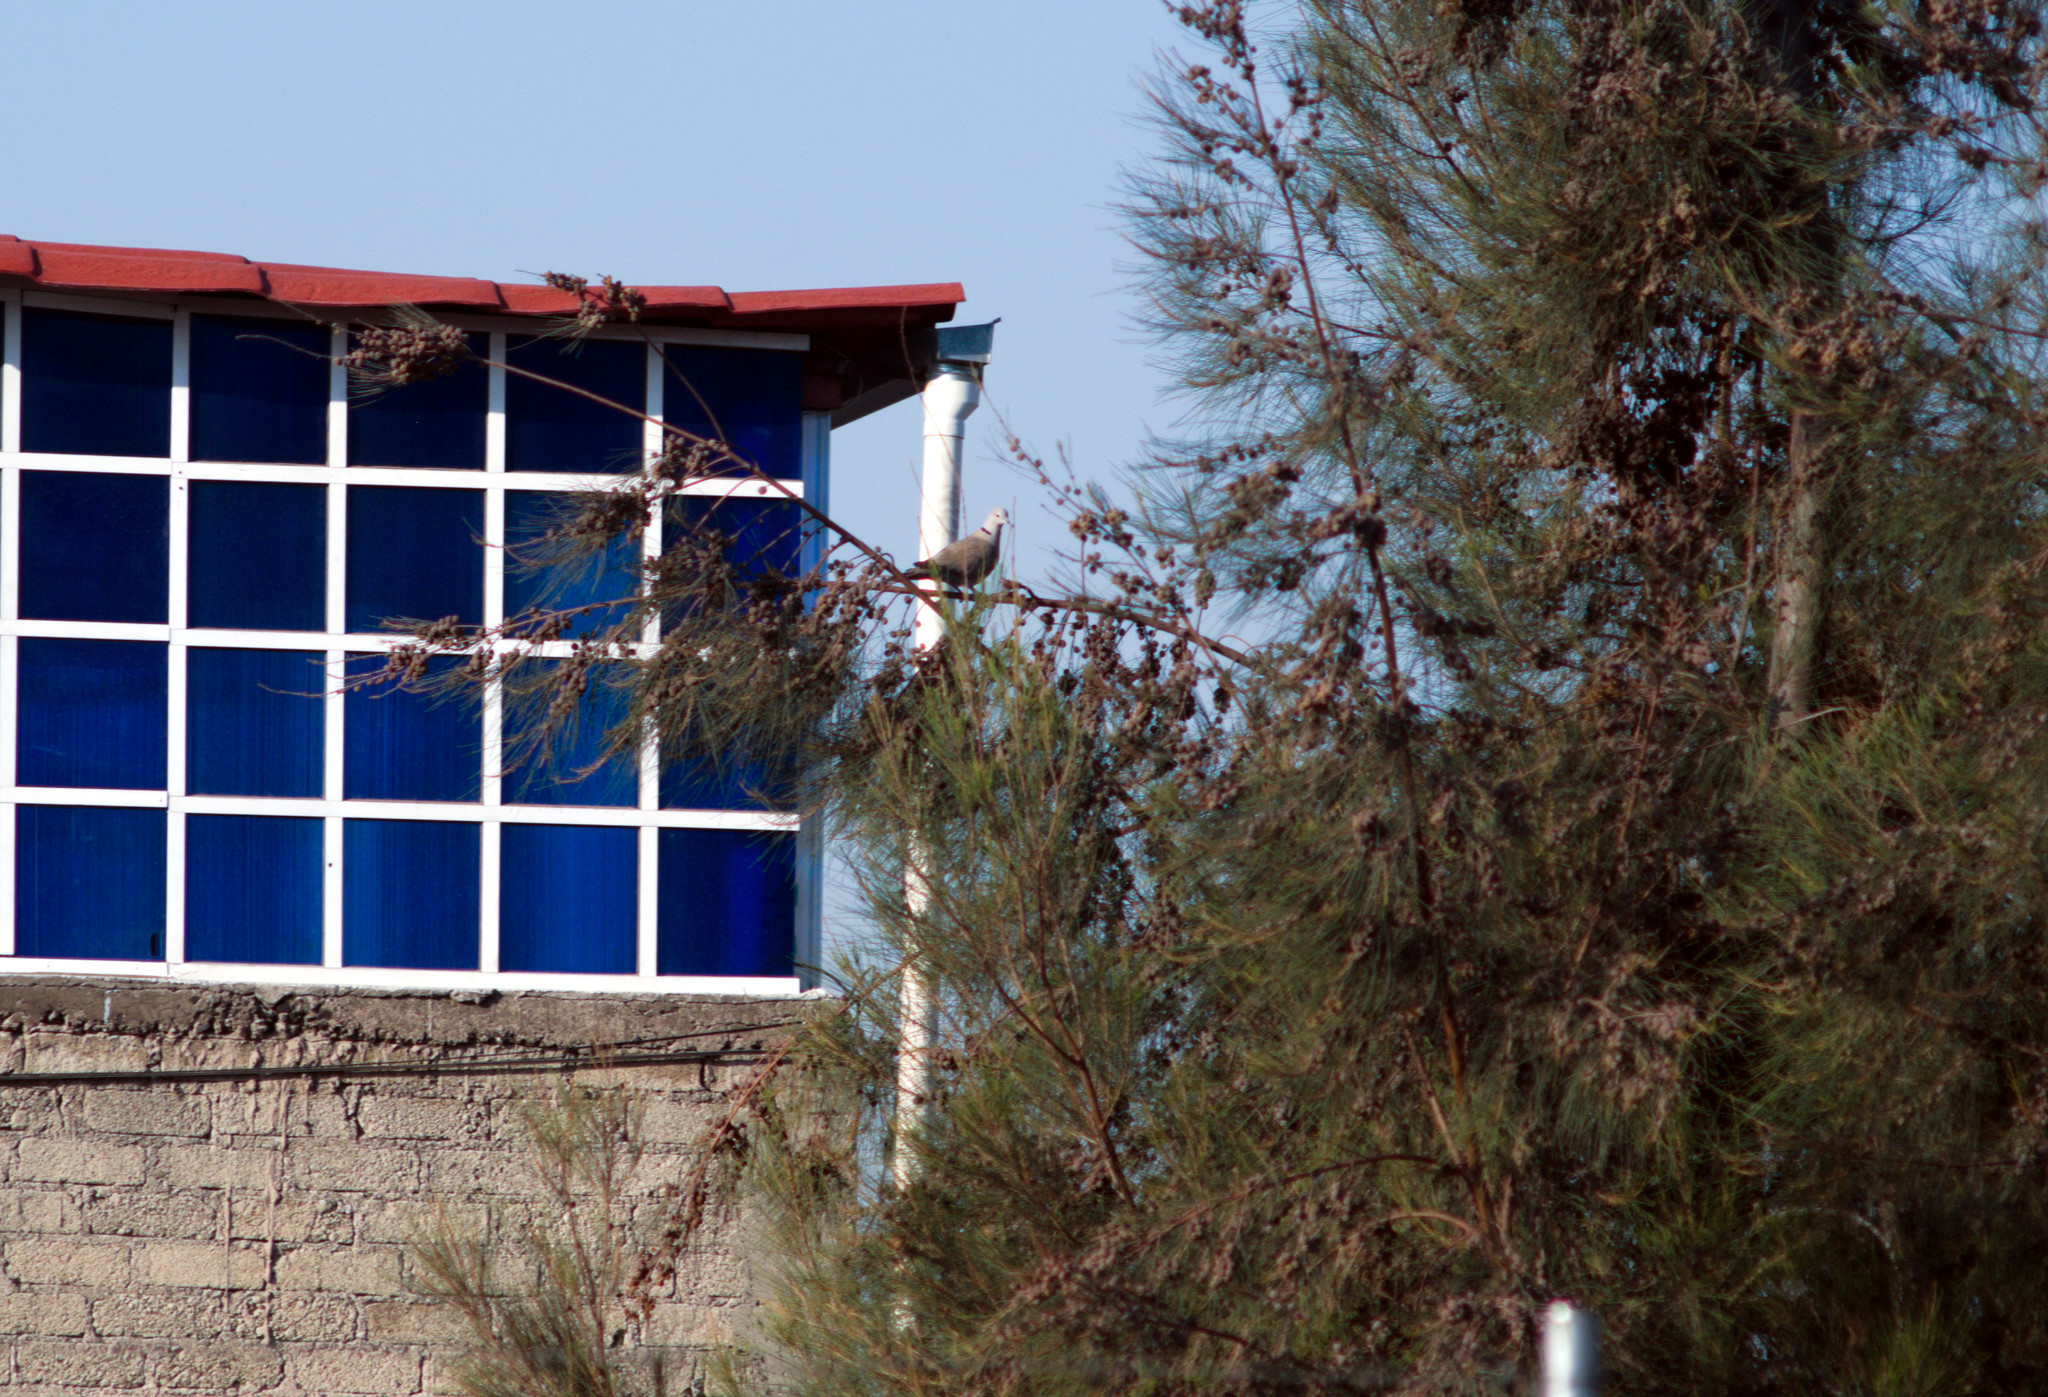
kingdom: Animalia
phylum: Chordata
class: Aves
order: Columbiformes
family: Columbidae
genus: Streptopelia
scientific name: Streptopelia decaocto
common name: Eurasian collared dove
